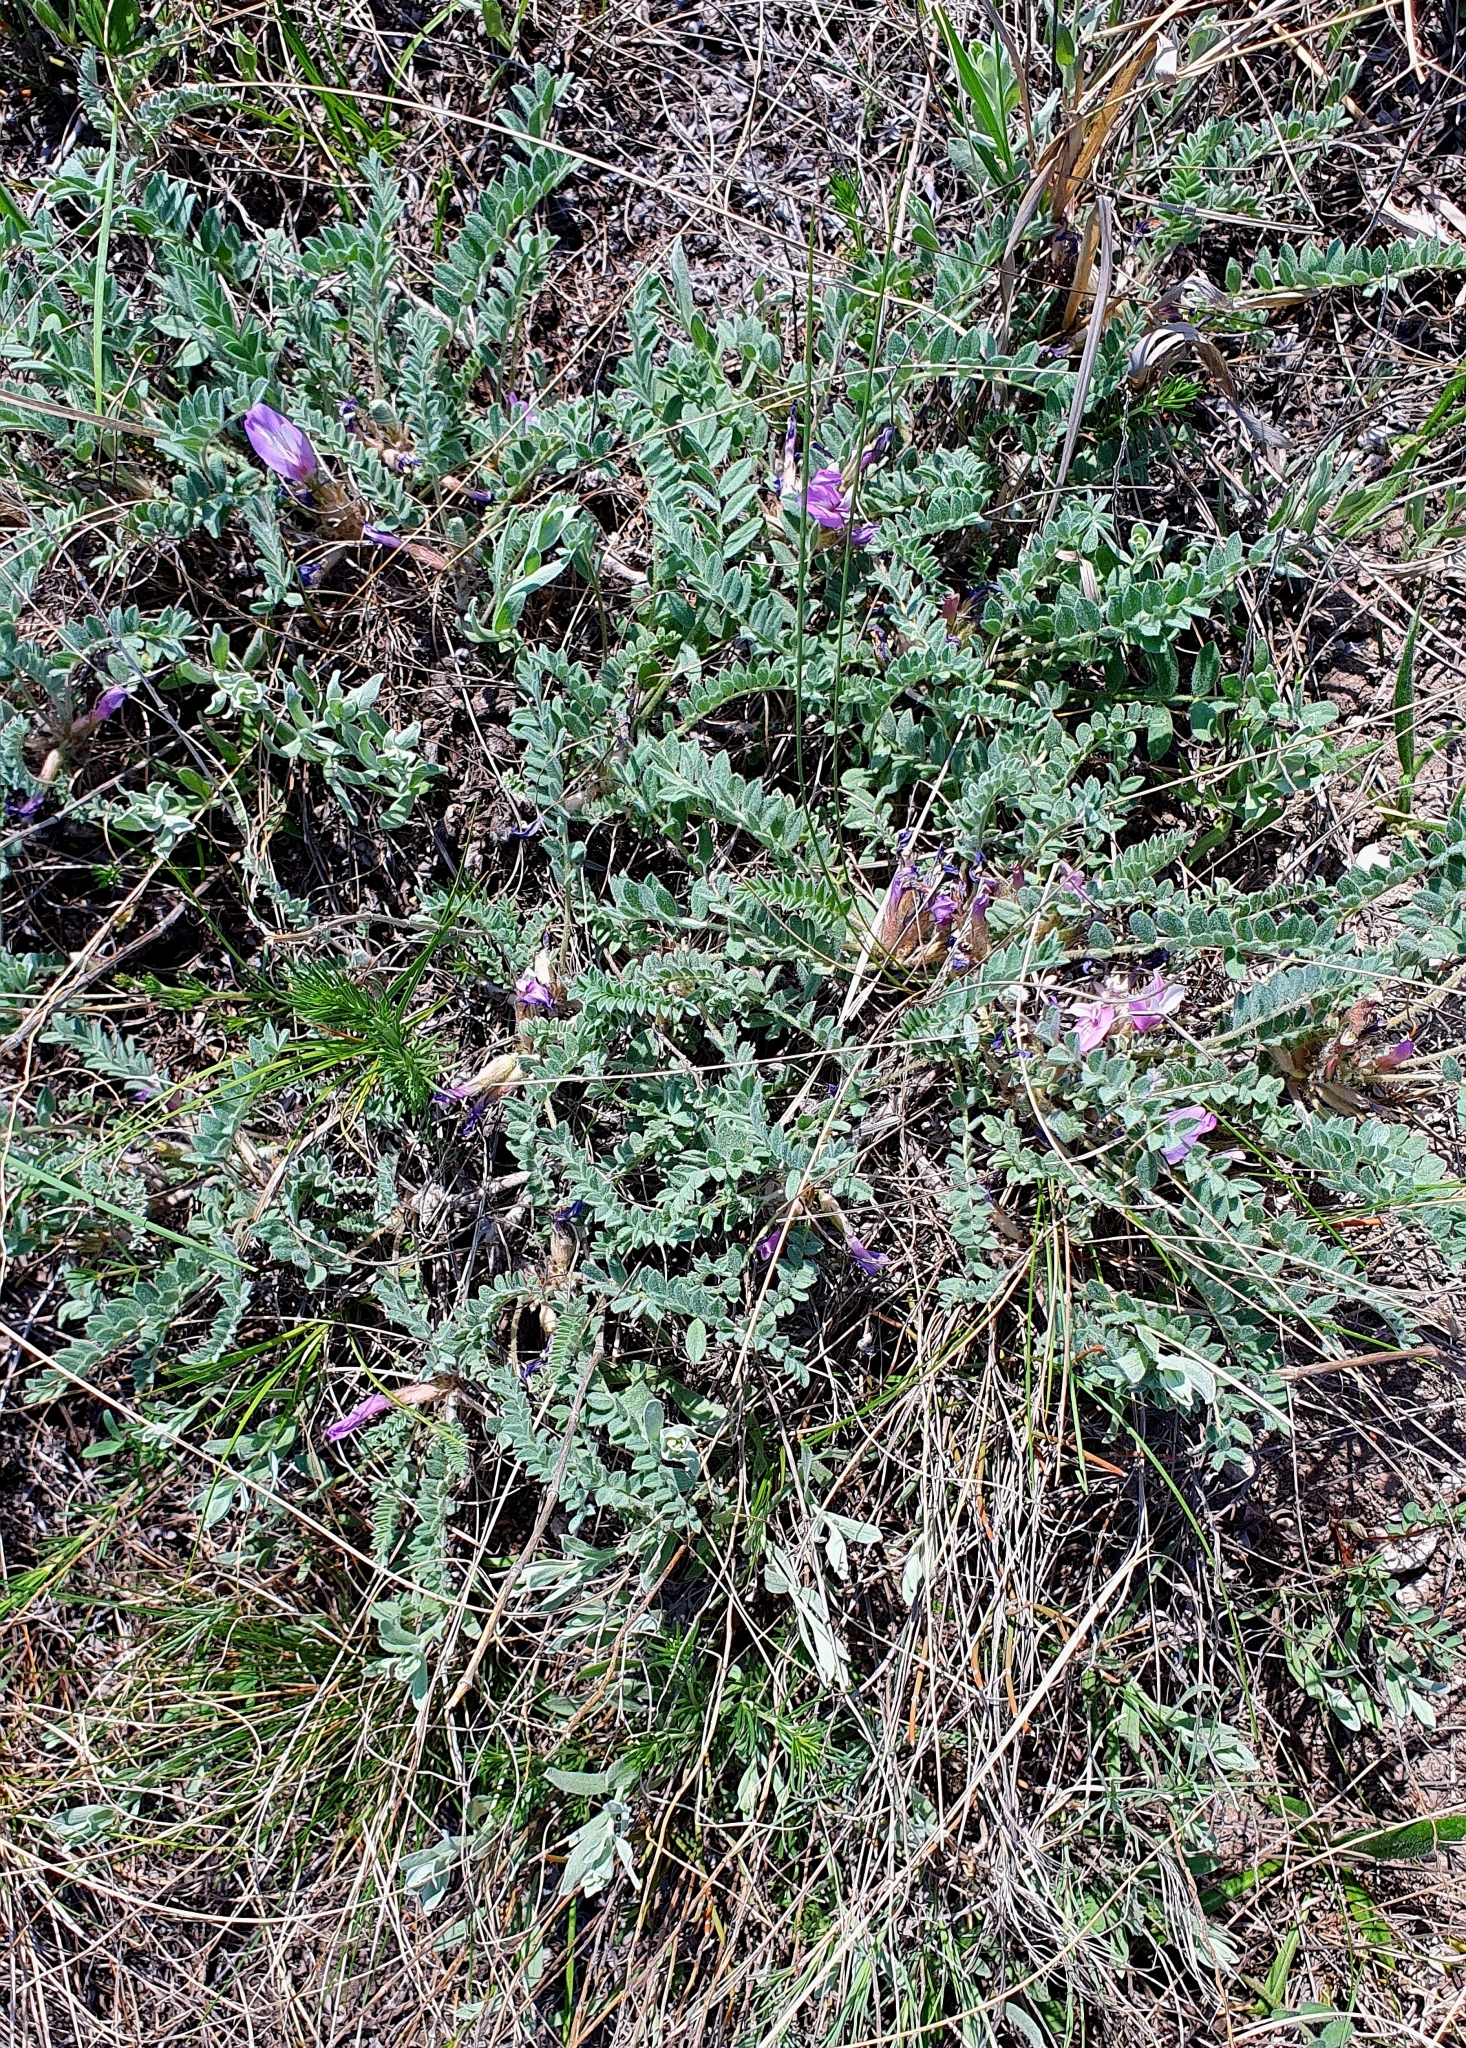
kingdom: Plantae
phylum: Tracheophyta
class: Magnoliopsida
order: Fabales
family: Fabaceae
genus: Astragalus
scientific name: Astragalus testiculatus
